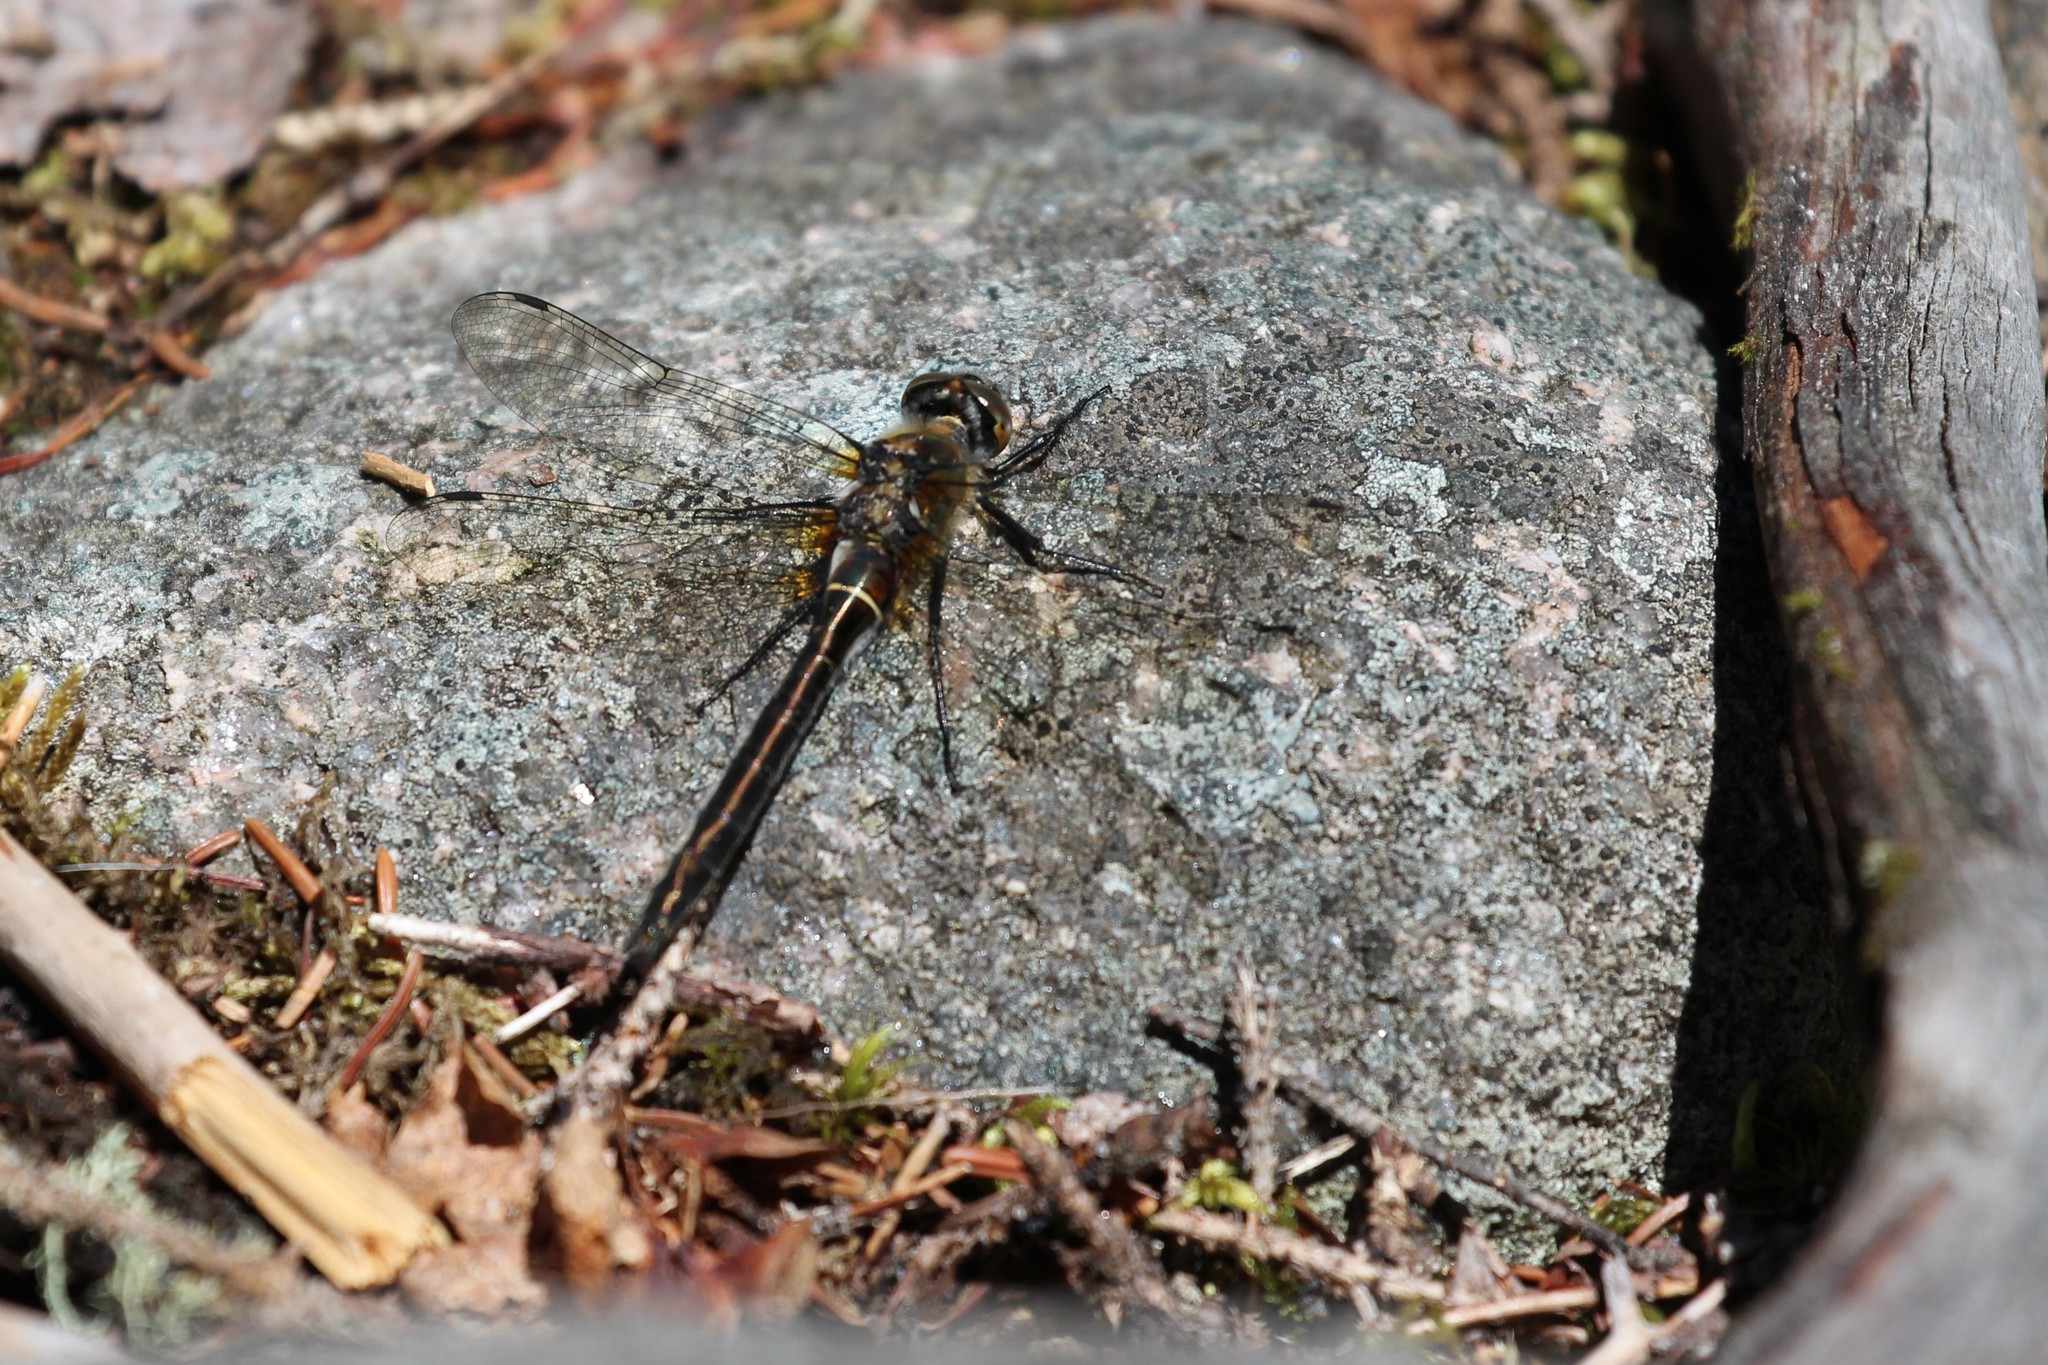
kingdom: Animalia
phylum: Arthropoda
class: Insecta
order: Odonata
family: Corduliidae
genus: Cordulia
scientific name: Cordulia shurtleffii
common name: American emerald
